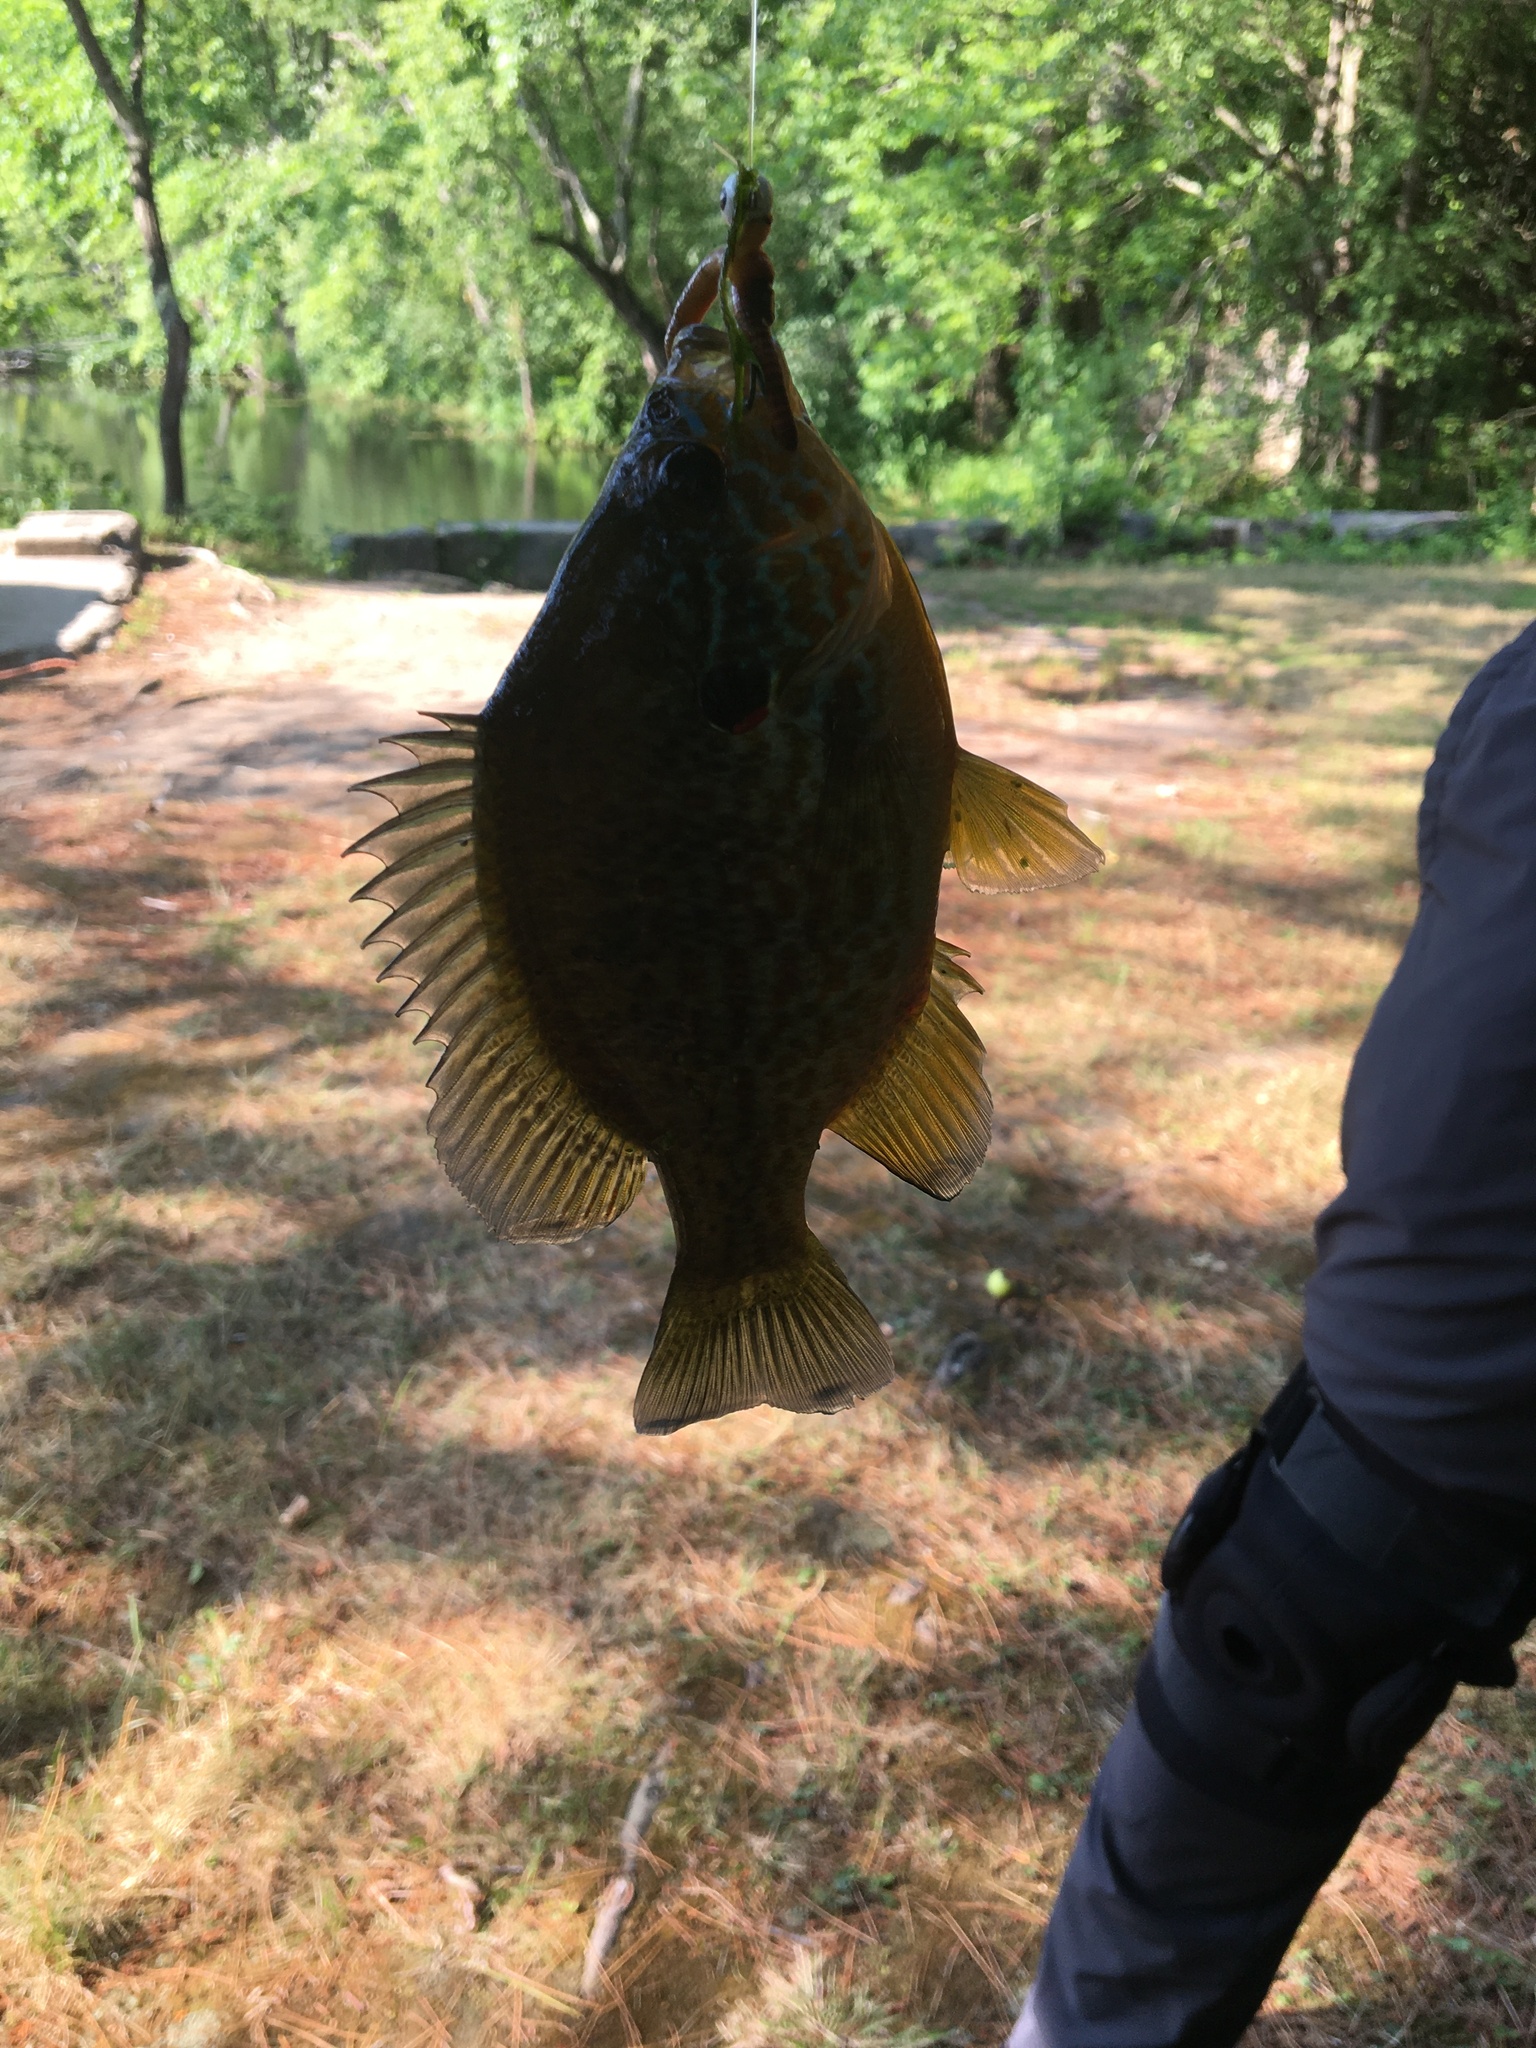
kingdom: Animalia
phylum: Chordata
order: Perciformes
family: Centrarchidae
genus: Lepomis
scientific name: Lepomis gibbosus
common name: Pumpkinseed
